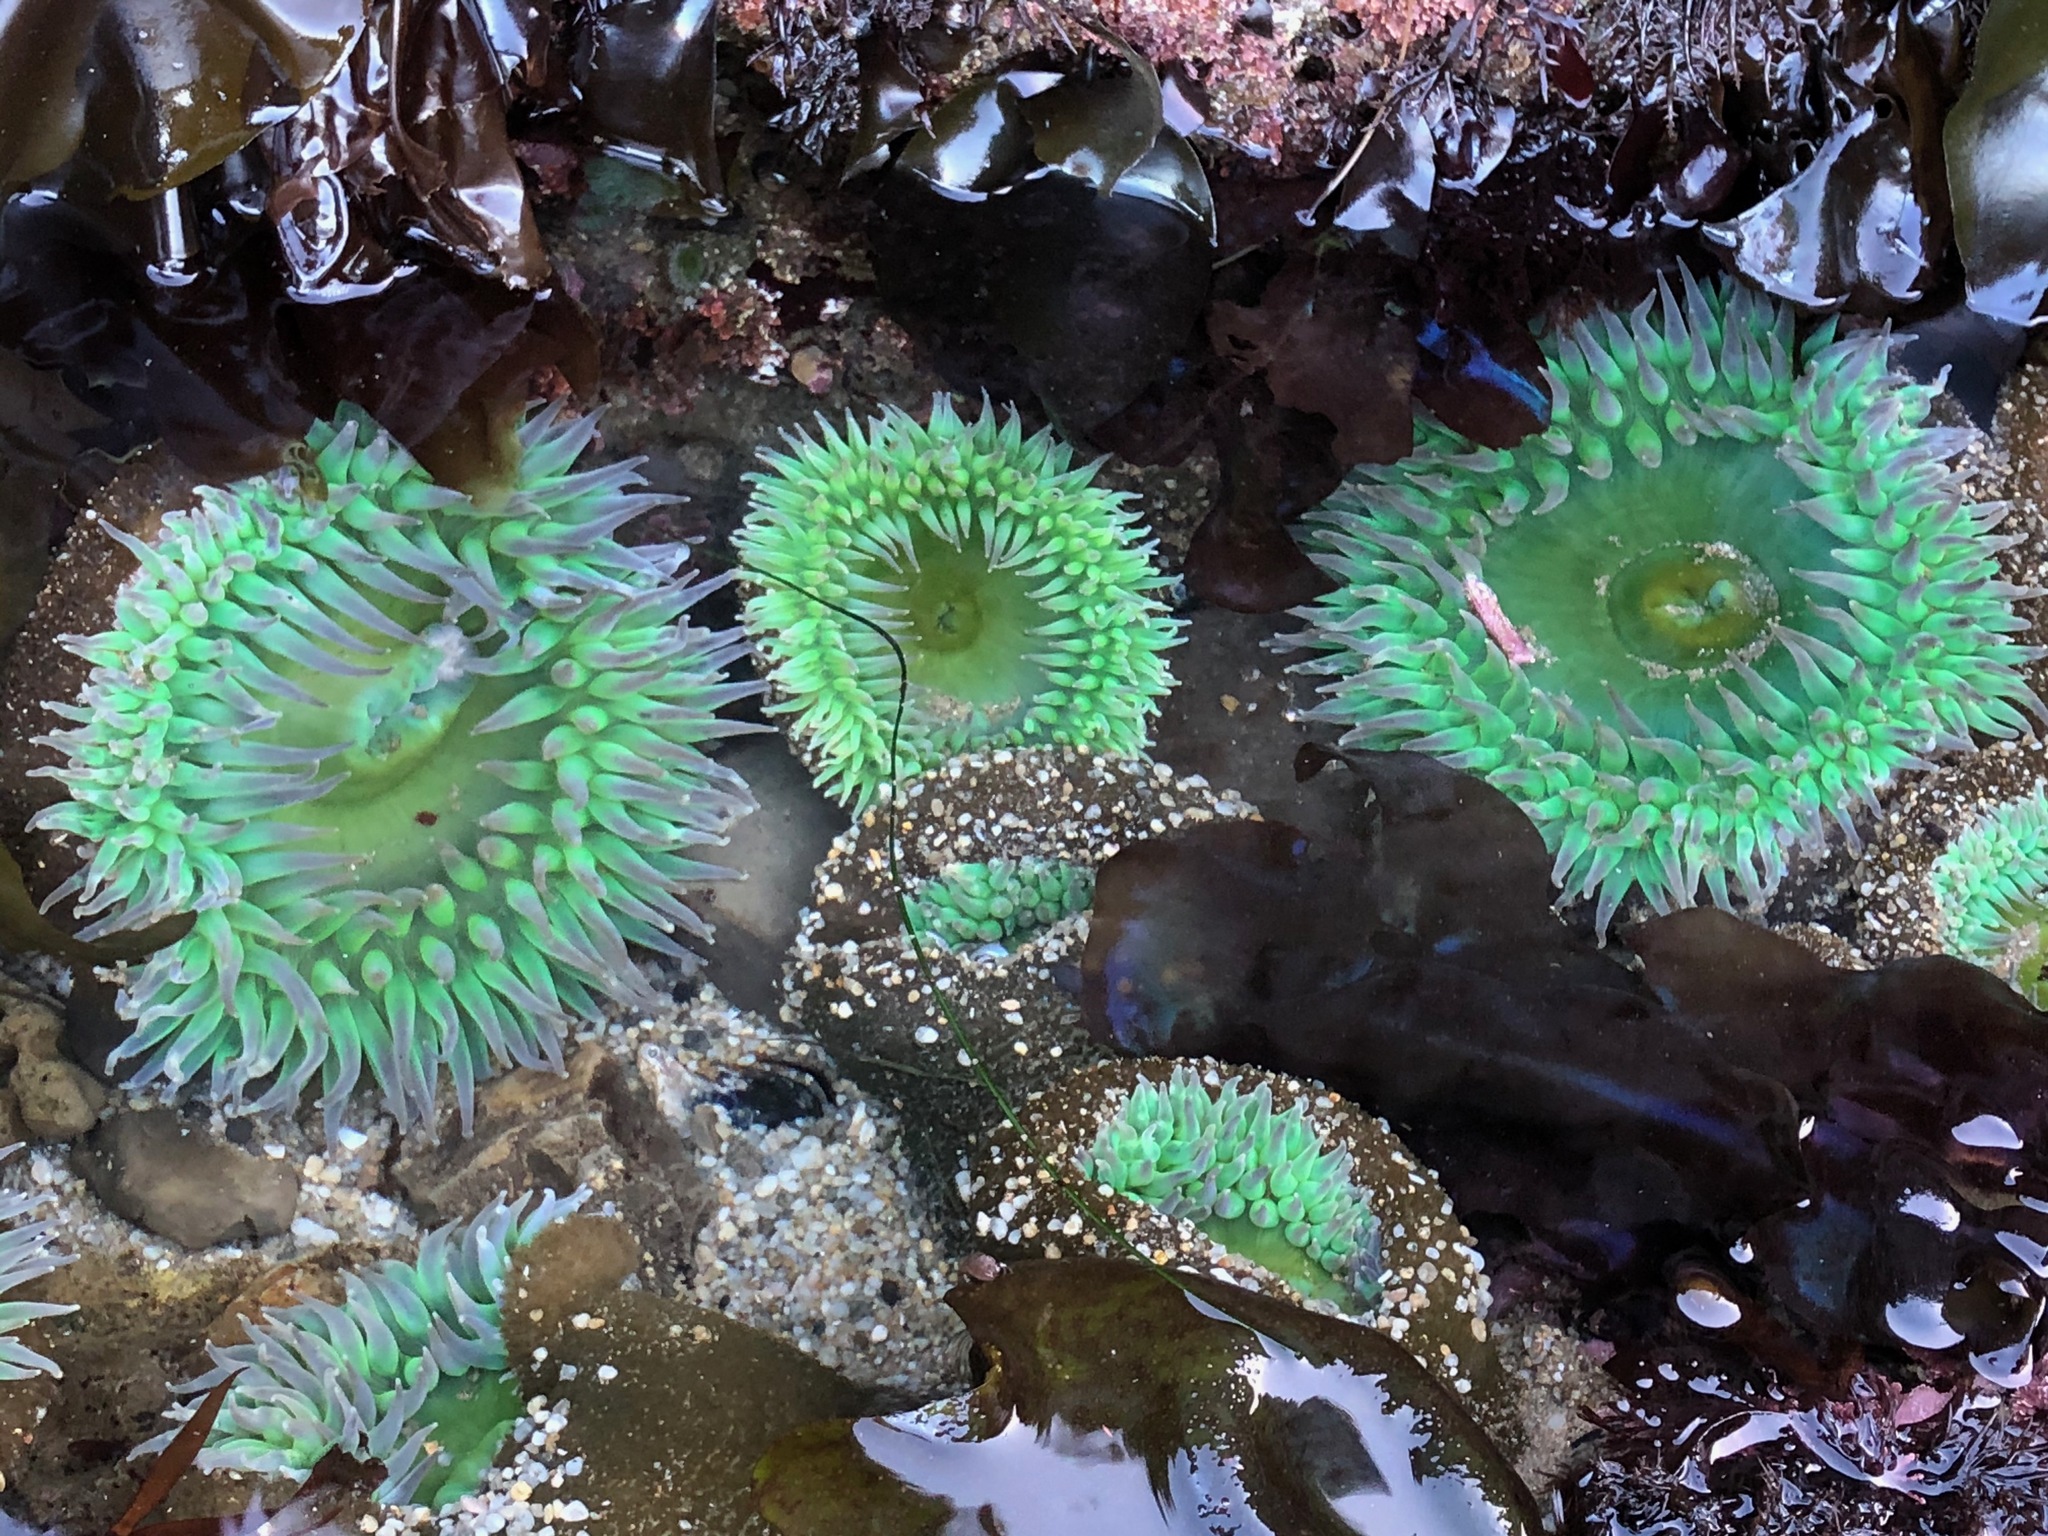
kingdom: Animalia
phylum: Cnidaria
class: Anthozoa
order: Actiniaria
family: Actiniidae
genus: Anthopleura
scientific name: Anthopleura xanthogrammica
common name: Giant green anemone
